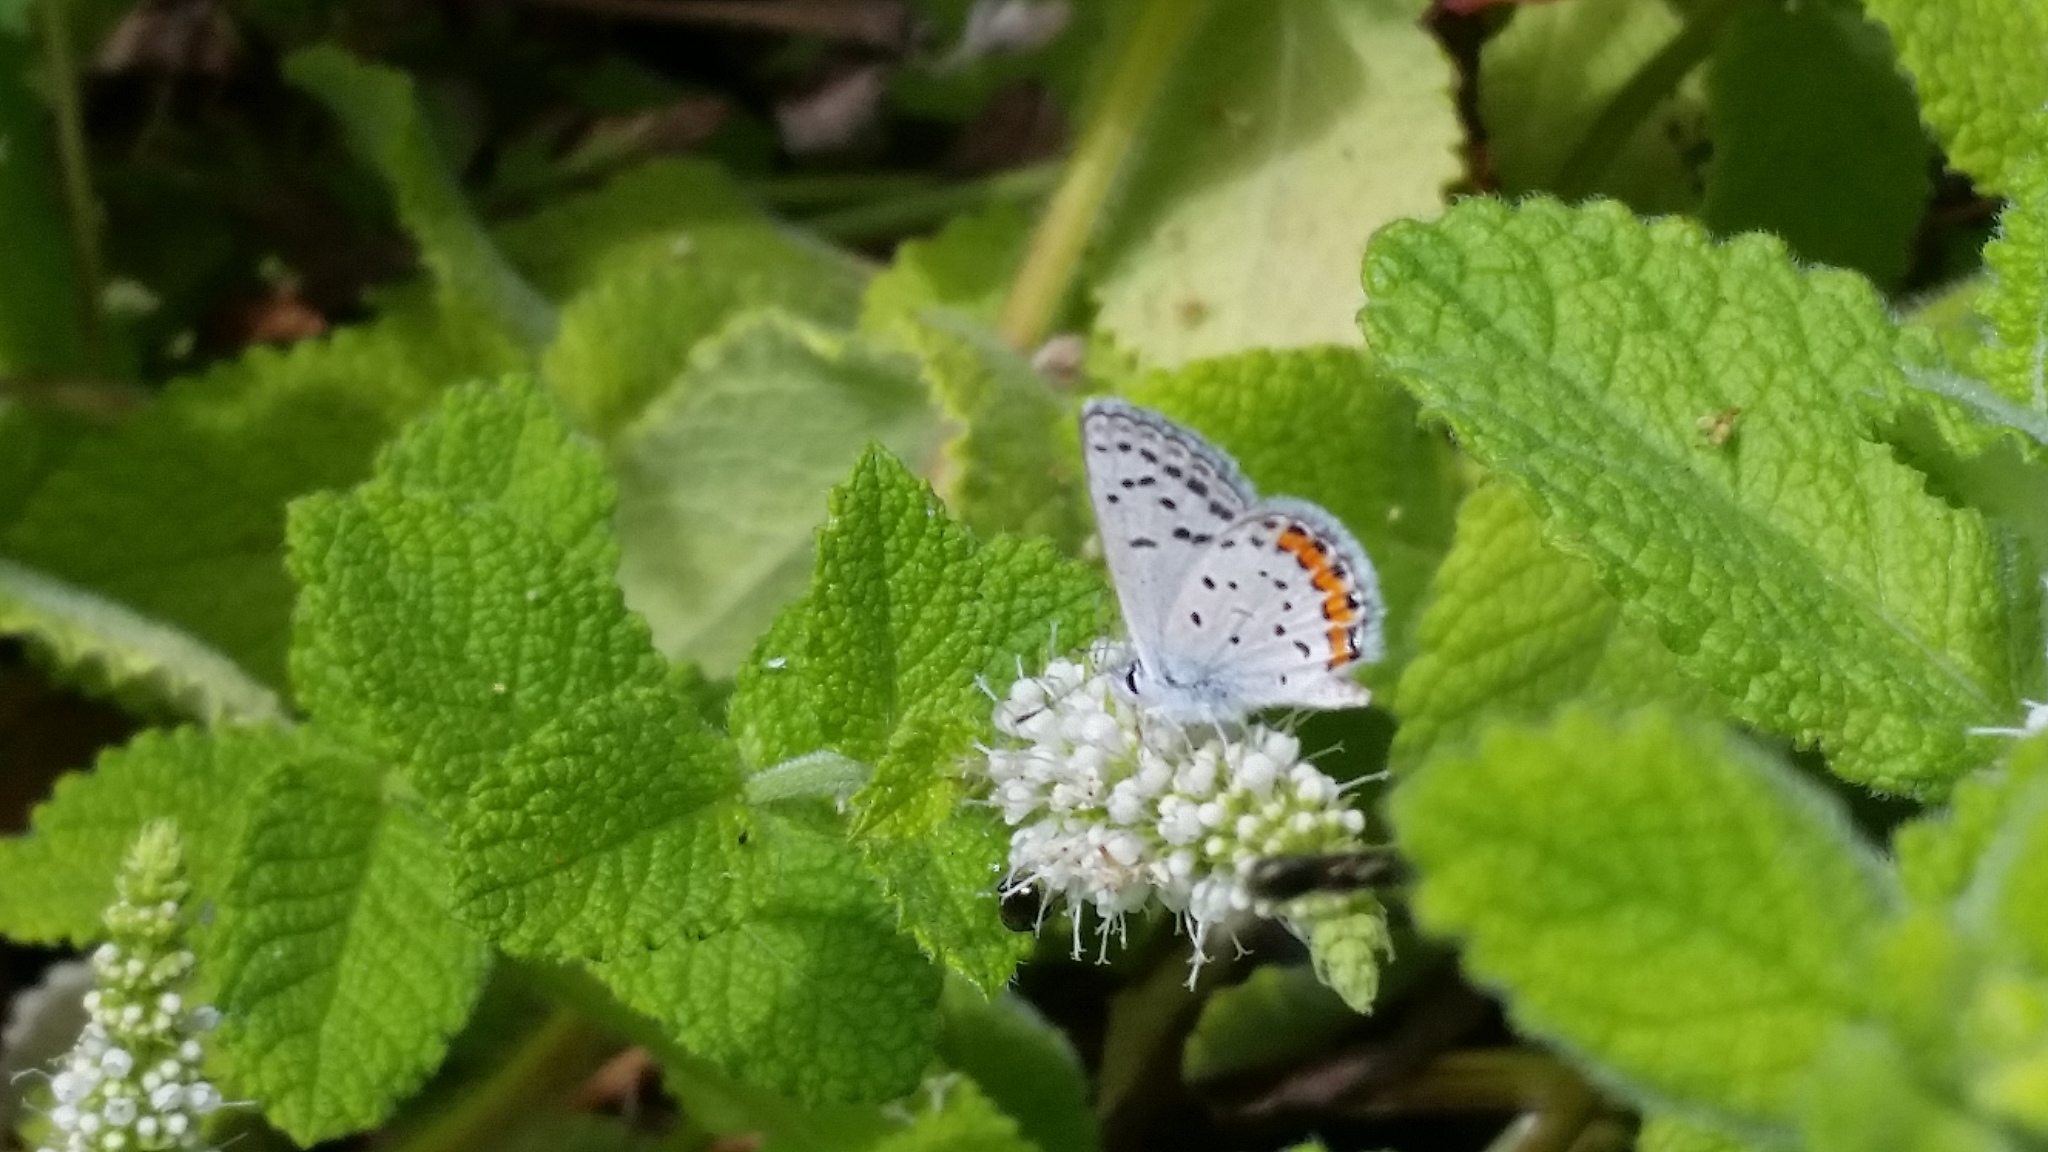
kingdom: Animalia
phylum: Arthropoda
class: Insecta
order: Lepidoptera
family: Lycaenidae
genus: Icaricia
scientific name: Icaricia acmon
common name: Acmon blue
